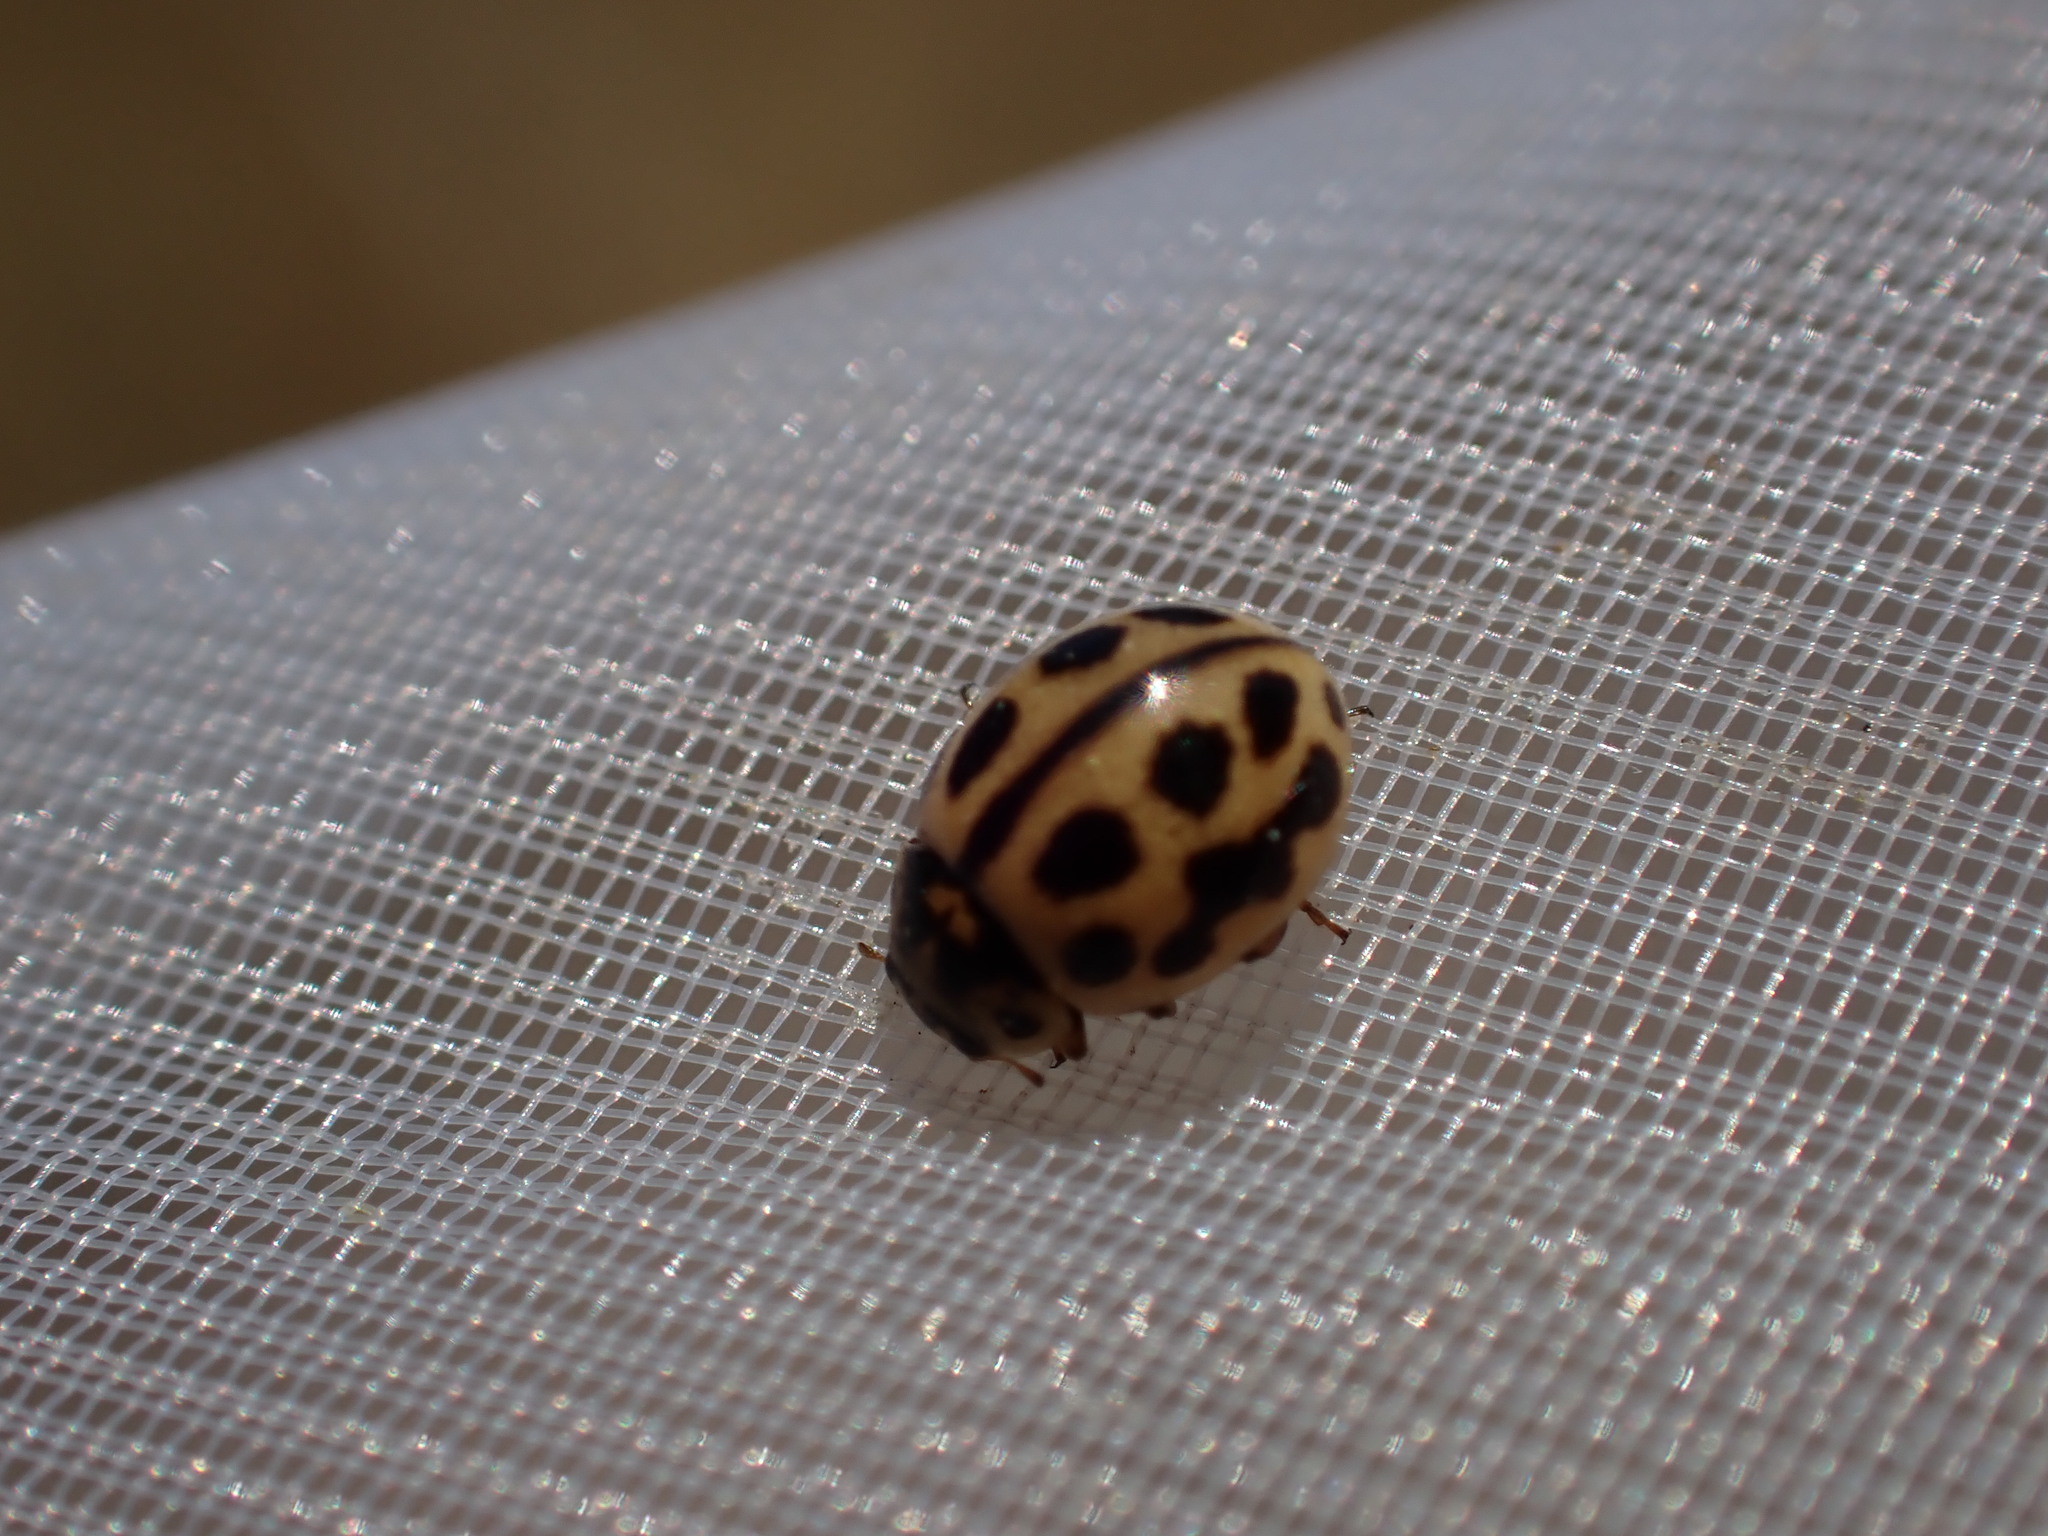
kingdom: Animalia
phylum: Arthropoda
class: Insecta
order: Coleoptera
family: Coccinellidae
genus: Tytthaspis
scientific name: Tytthaspis sedecimpunctata
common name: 16-spot ladybird
